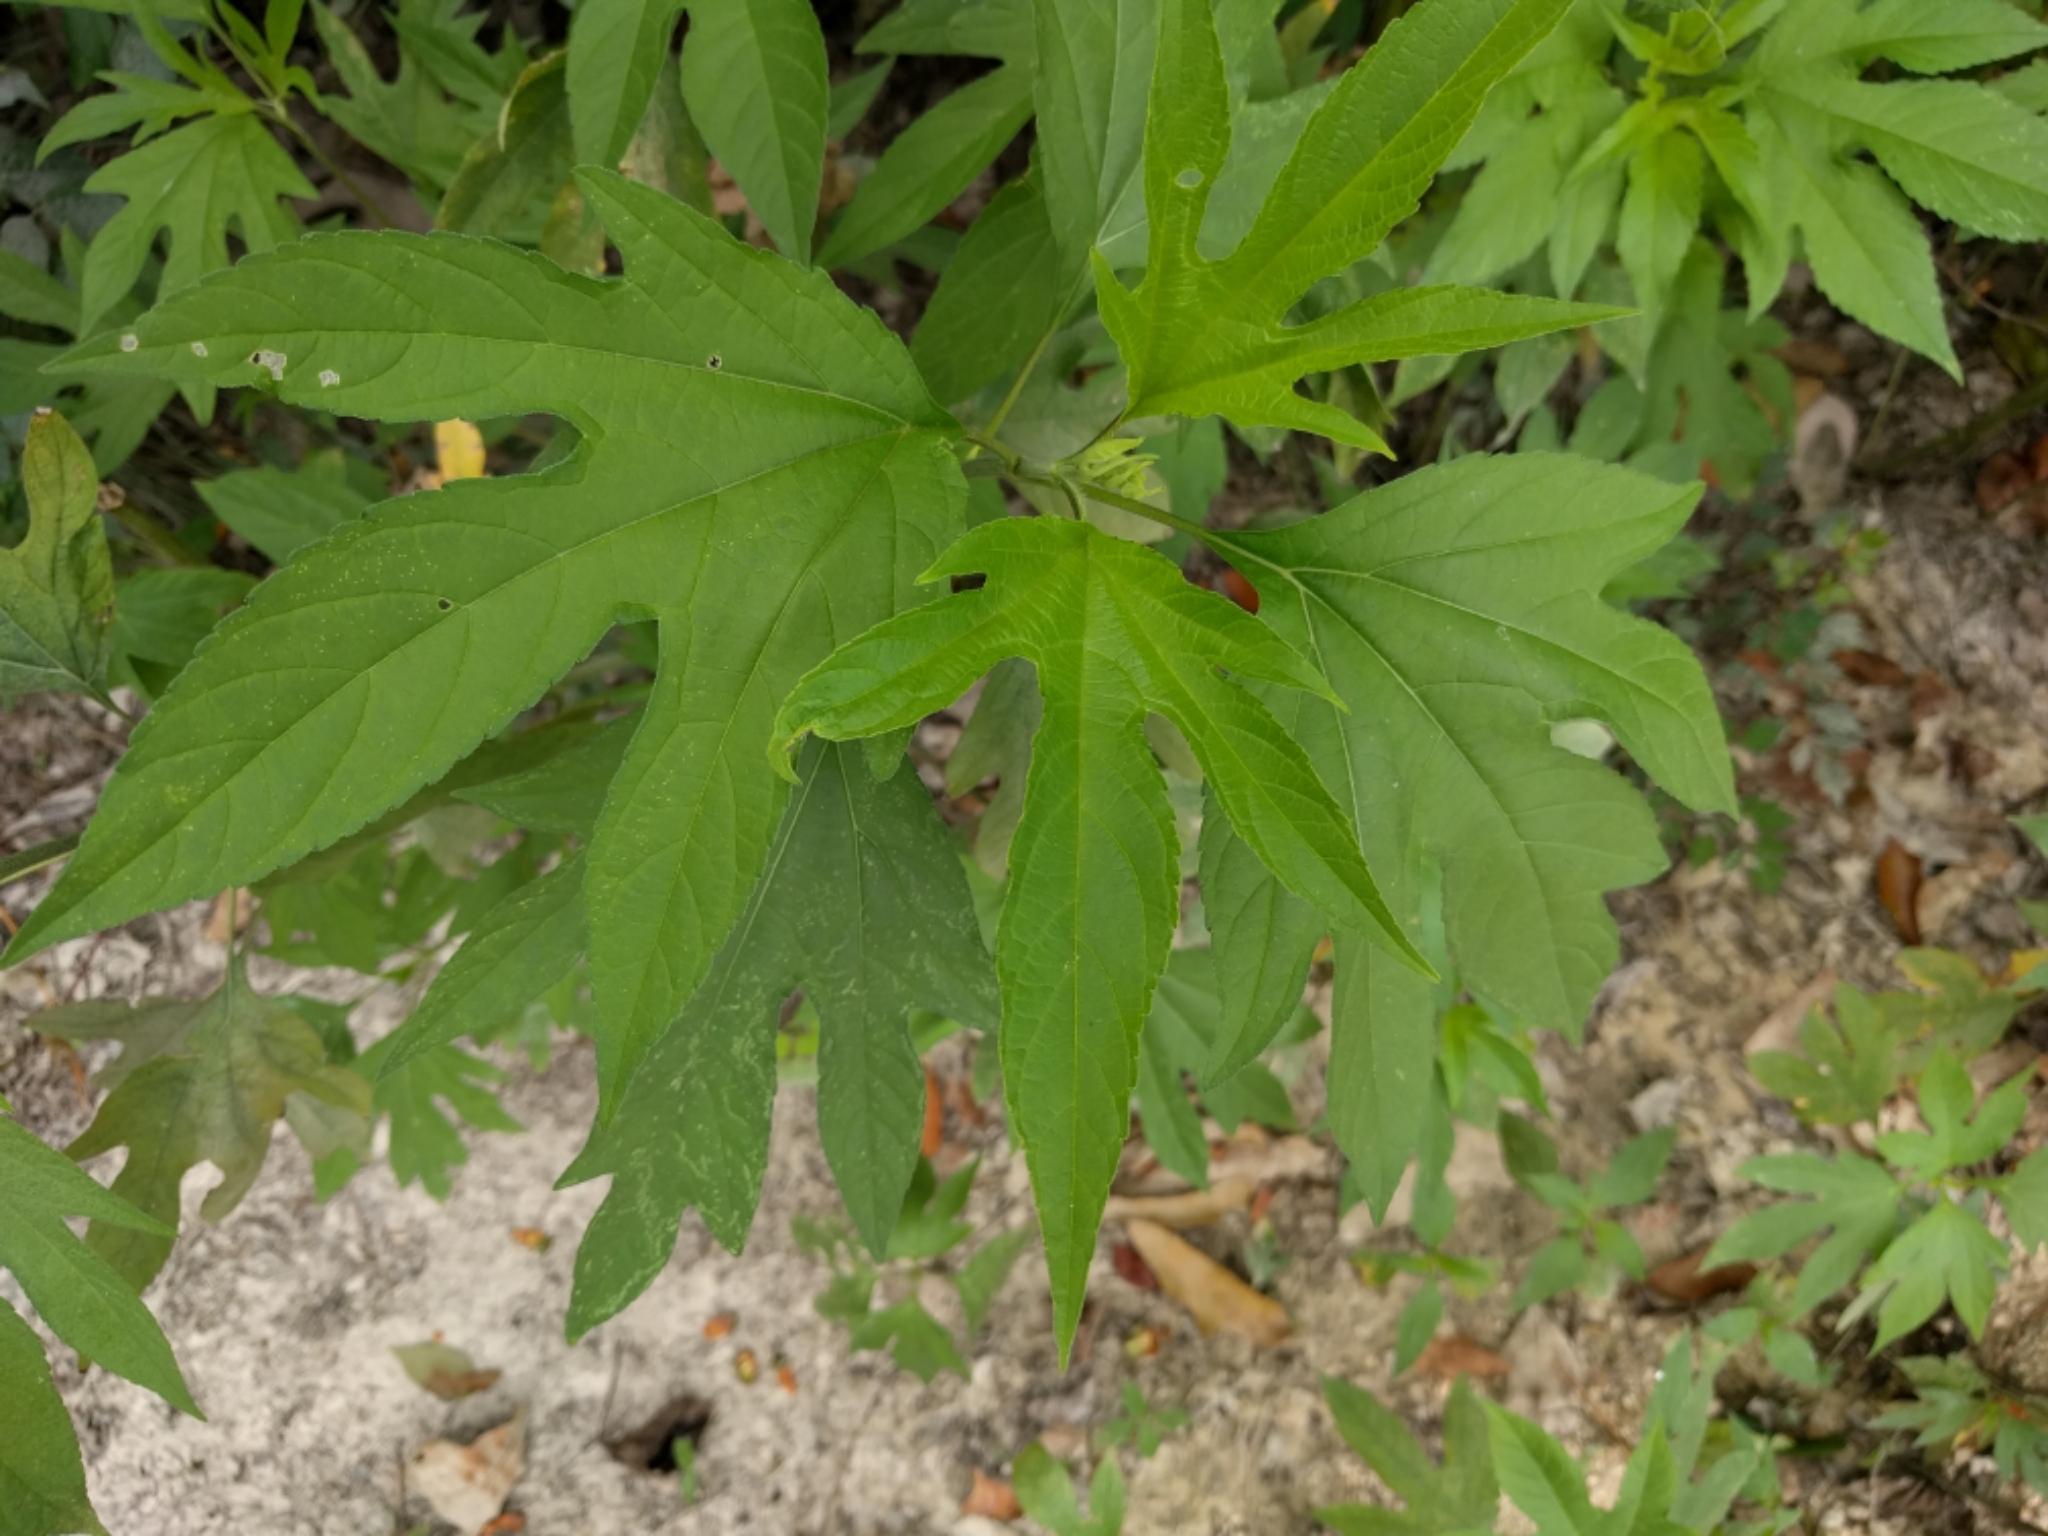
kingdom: Plantae
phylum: Tracheophyta
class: Magnoliopsida
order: Asterales
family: Asteraceae
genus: Ambrosia
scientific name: Ambrosia trifida
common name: Giant ragweed
